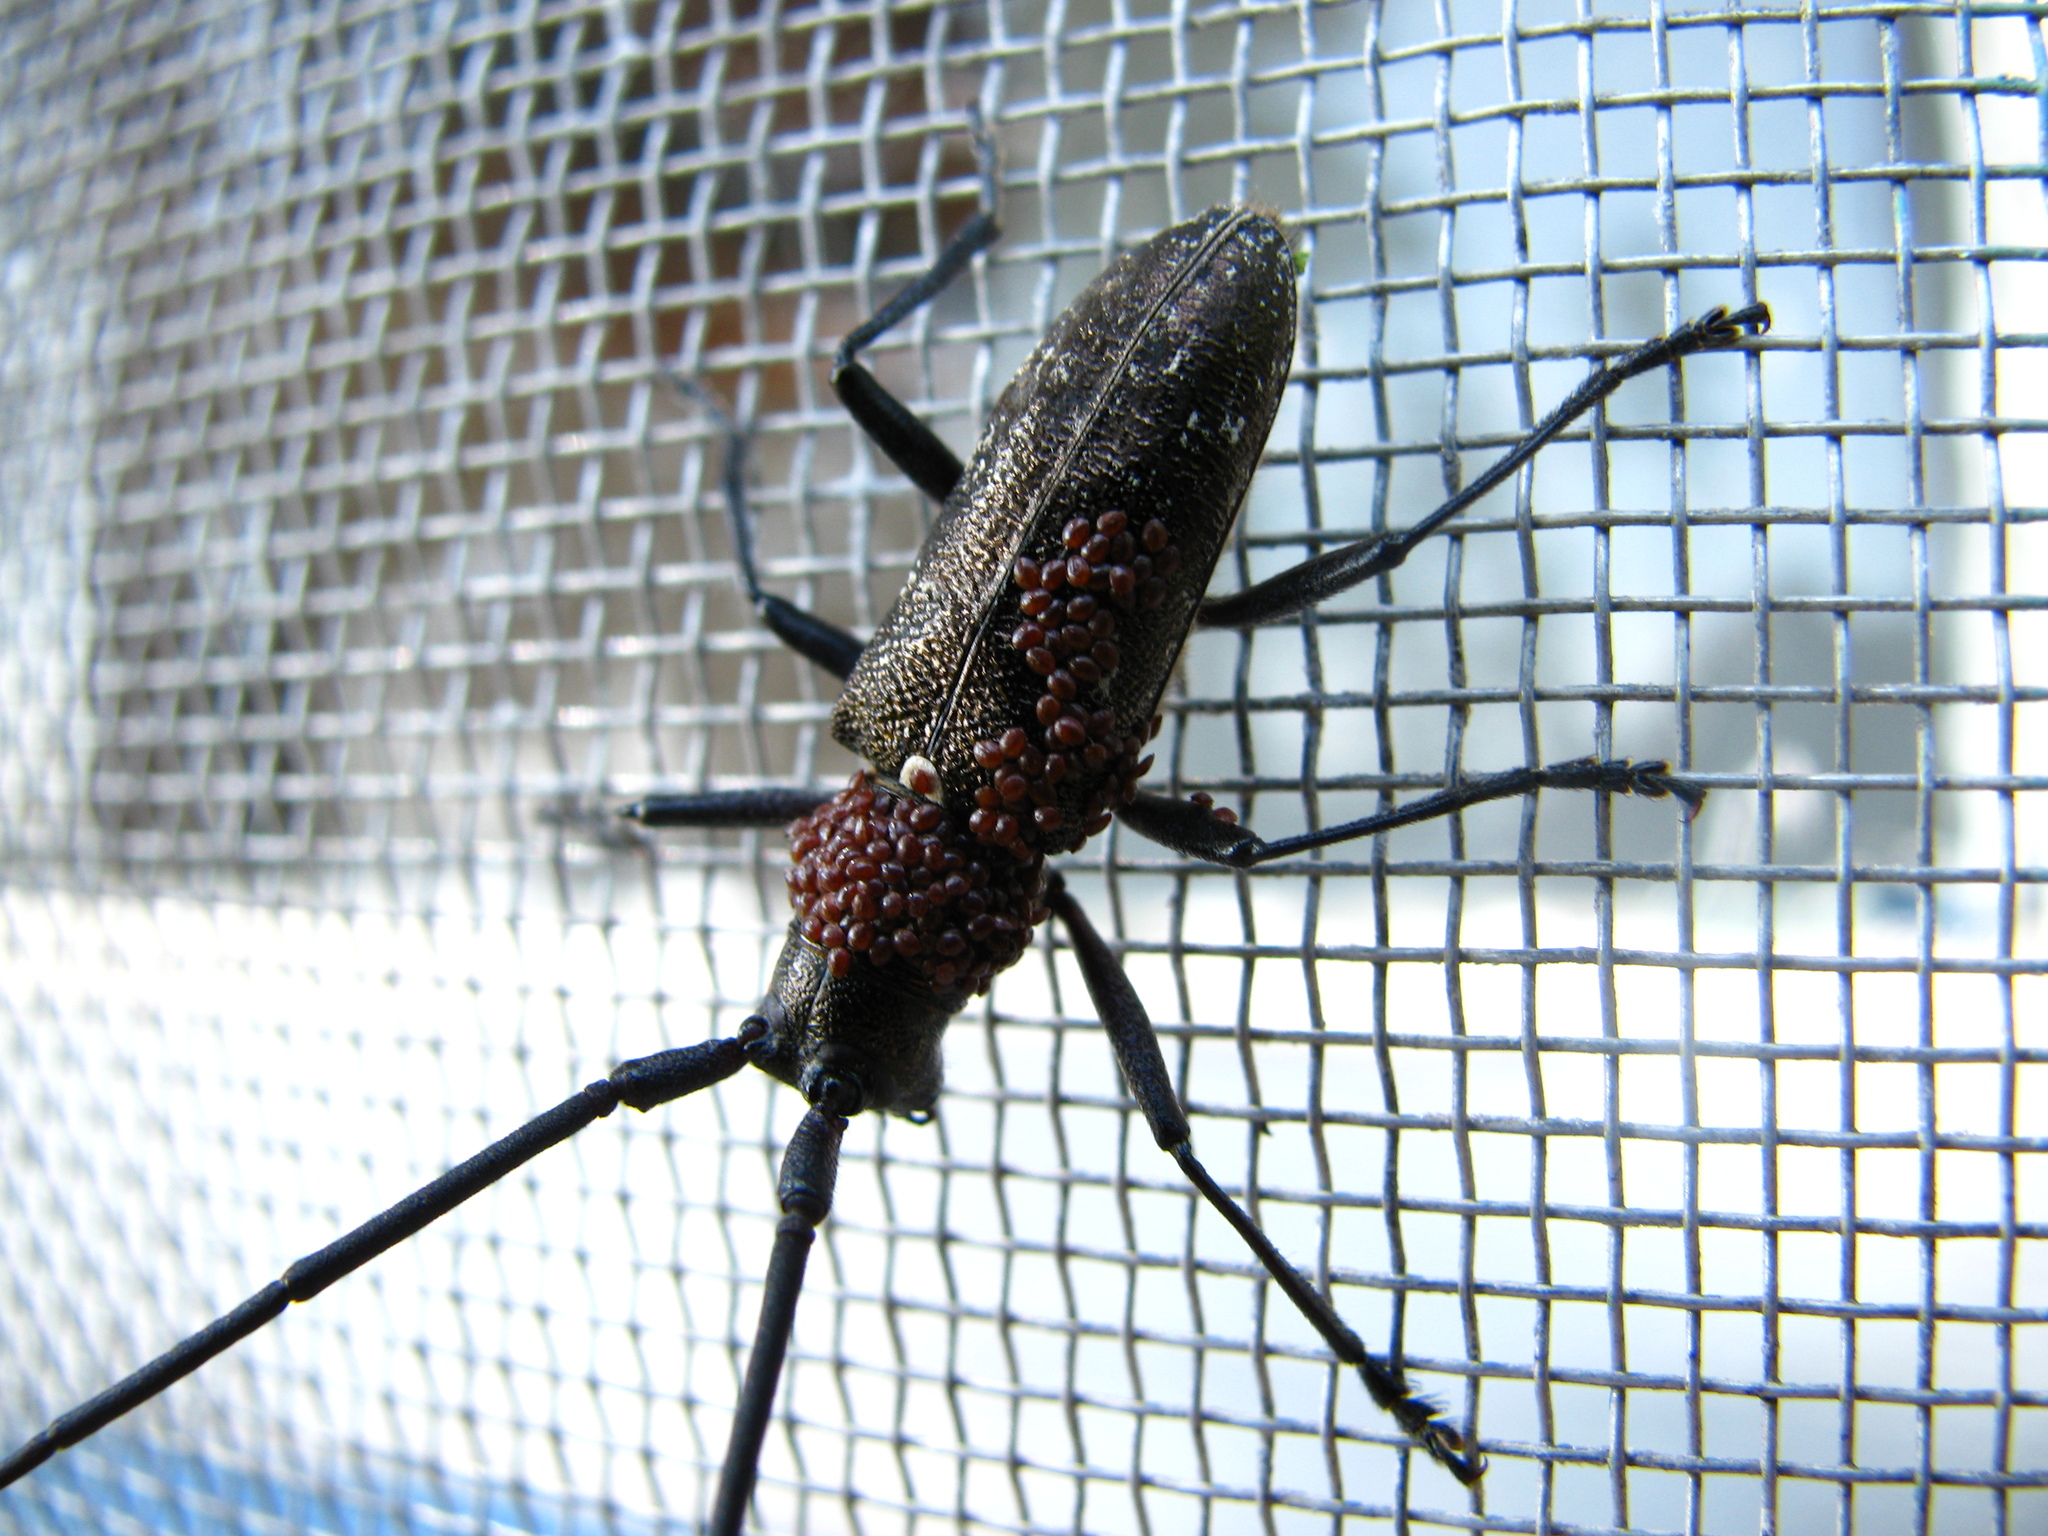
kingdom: Animalia
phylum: Arthropoda
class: Insecta
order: Coleoptera
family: Cerambycidae
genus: Monochamus
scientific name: Monochamus scutellatus
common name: White-spotted sawyer beetle
